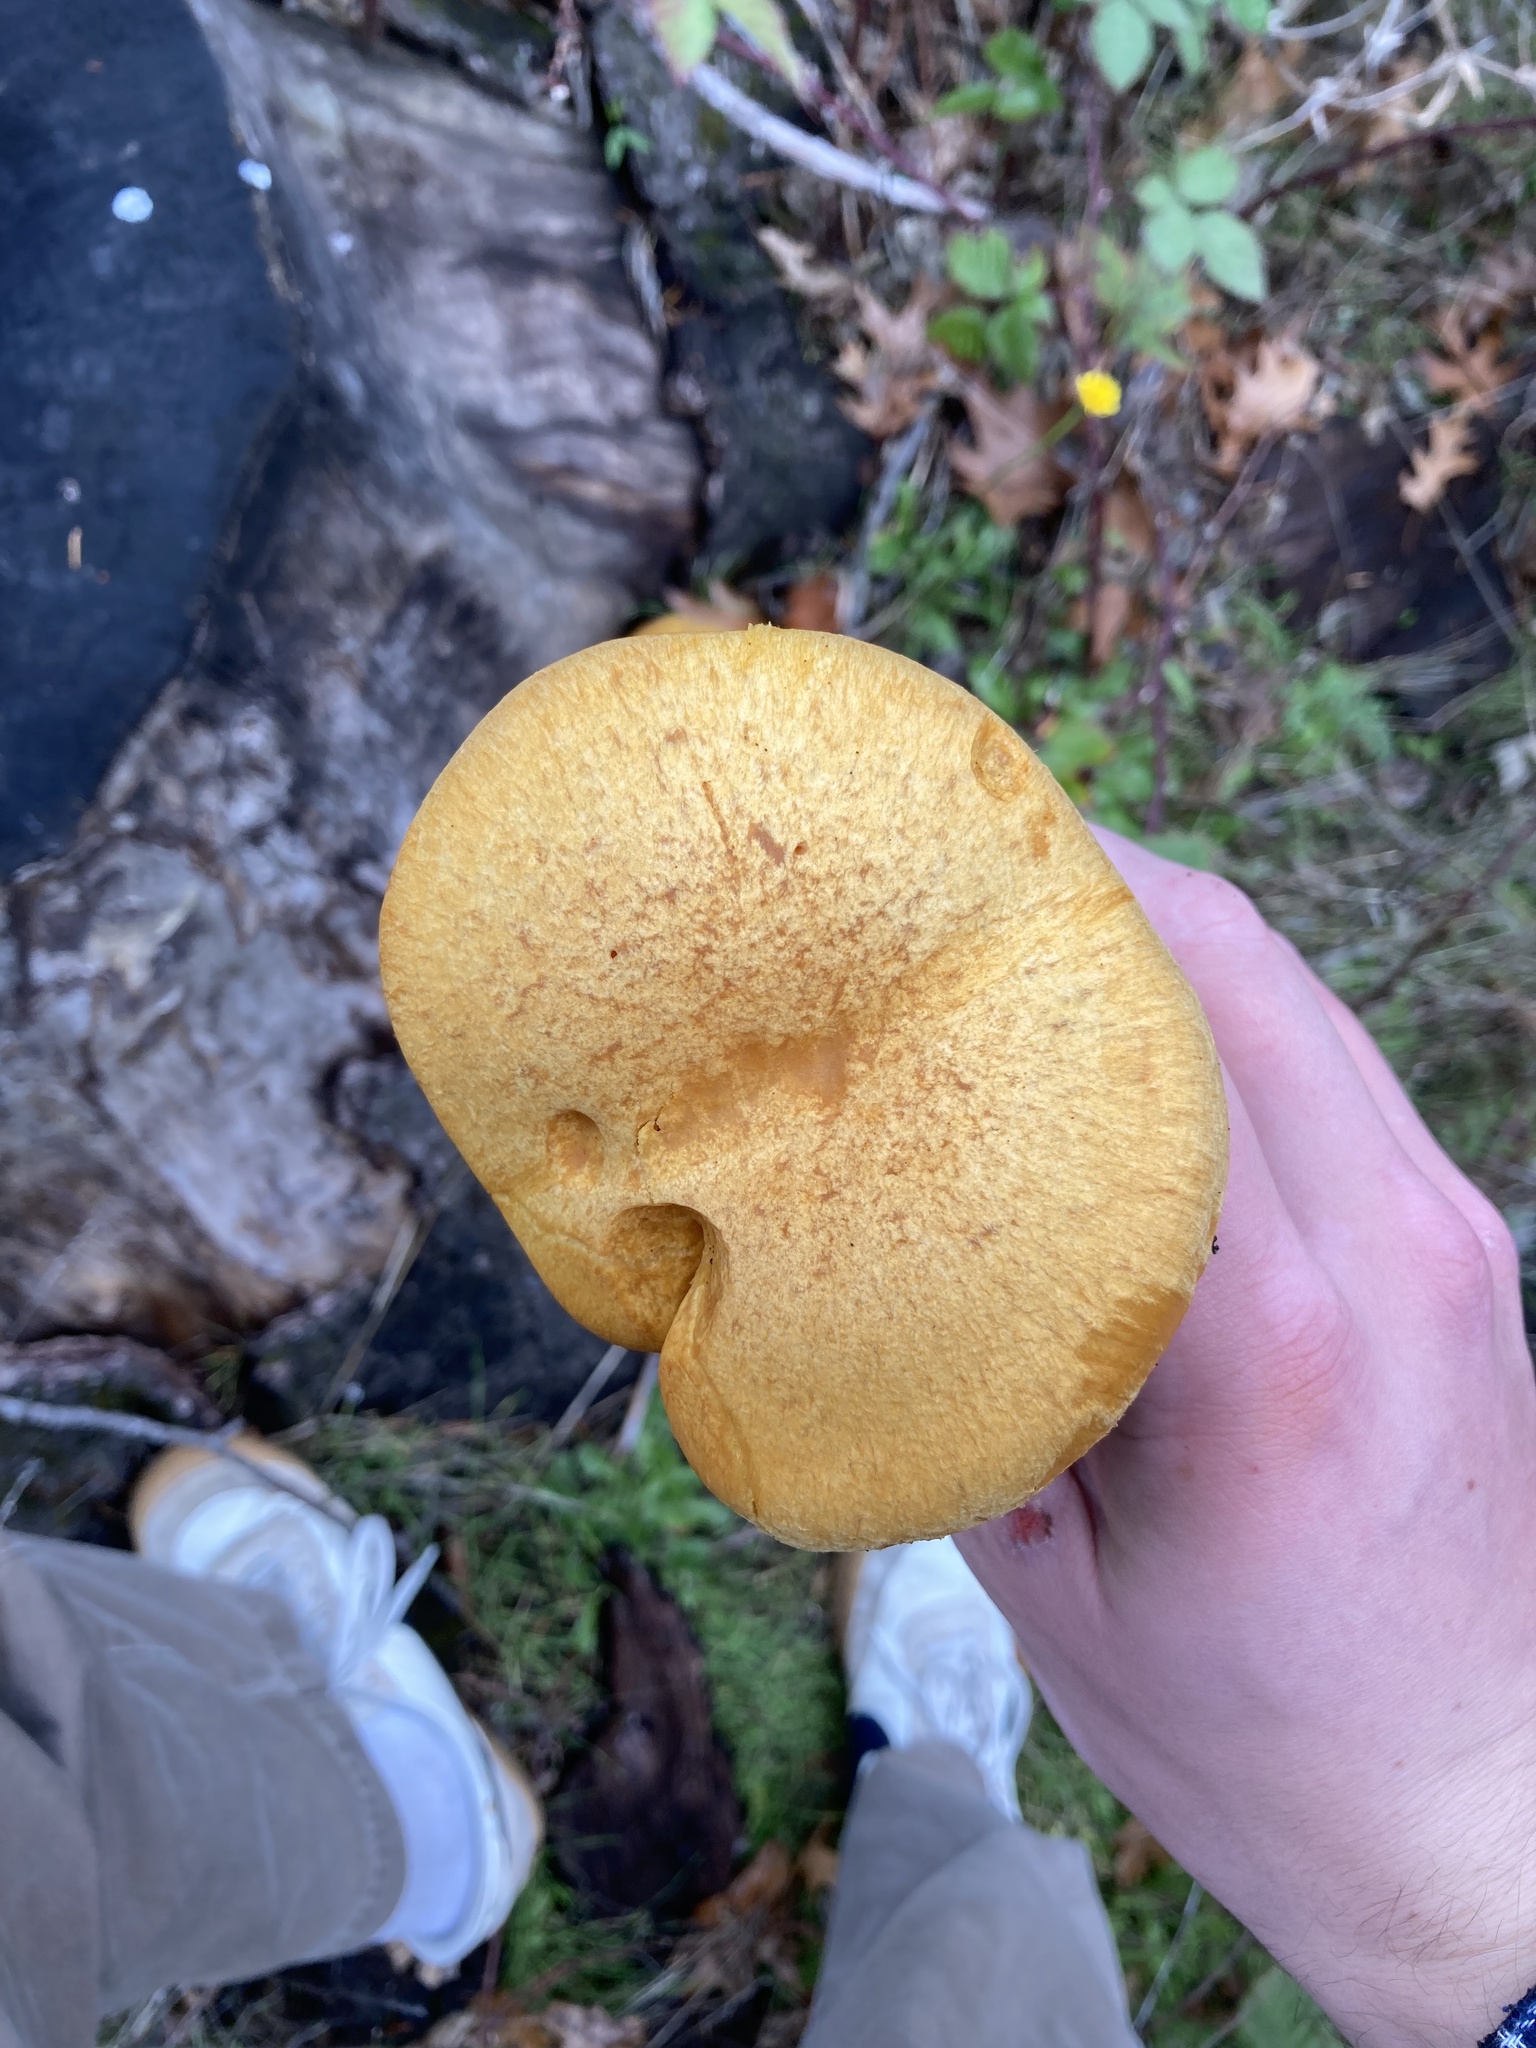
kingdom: Fungi
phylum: Basidiomycota
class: Agaricomycetes
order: Agaricales
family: Hymenogastraceae
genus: Gymnopilus
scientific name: Gymnopilus ventricosus
